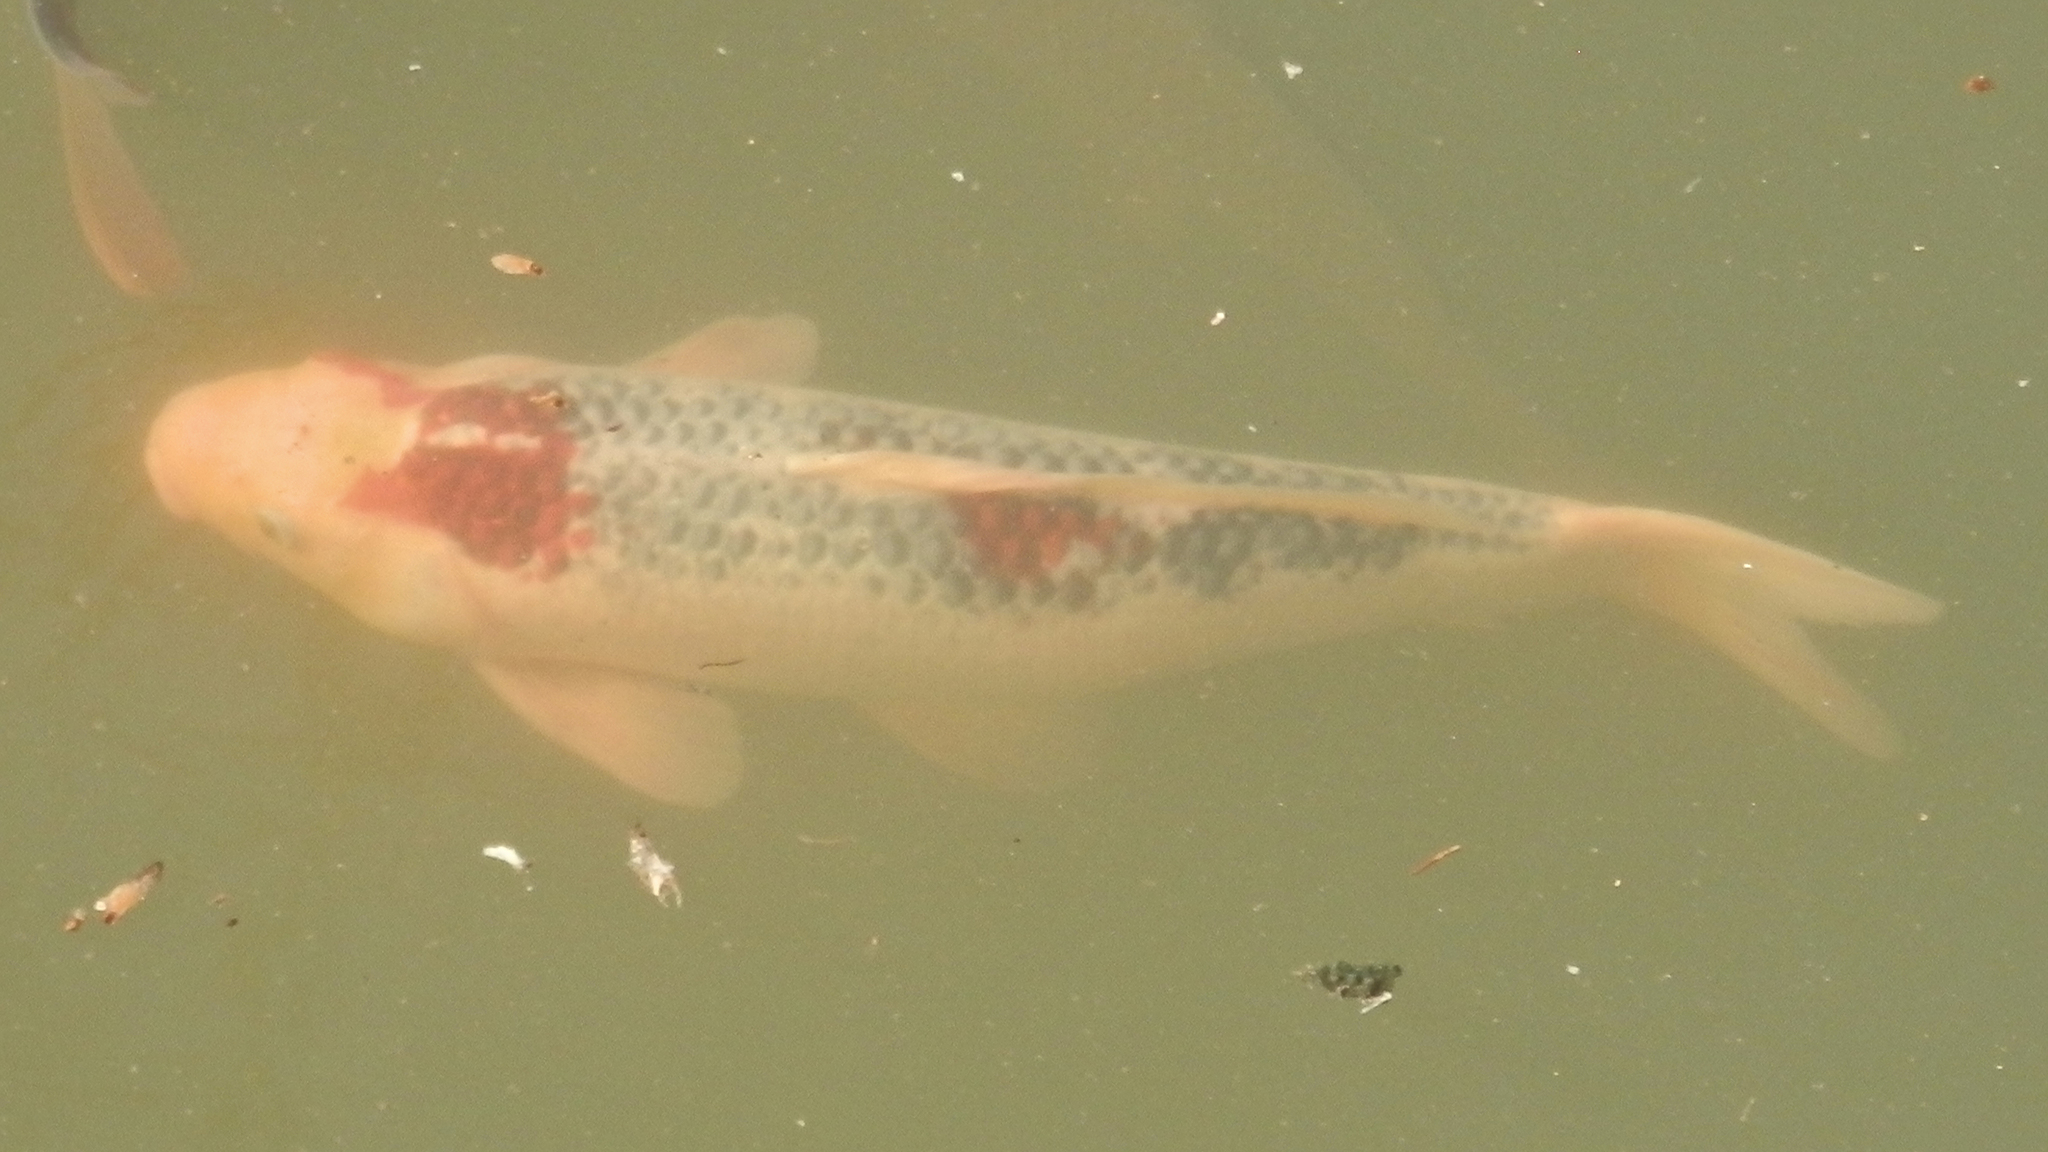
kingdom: Animalia
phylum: Chordata
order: Cypriniformes
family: Cyprinidae
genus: Cyprinus
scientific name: Cyprinus rubrofuscus
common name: Koi
